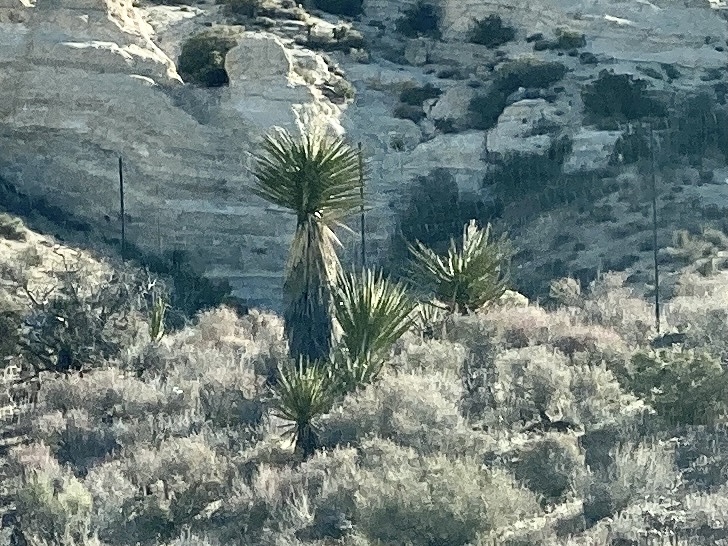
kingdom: Plantae
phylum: Tracheophyta
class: Liliopsida
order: Asparagales
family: Asparagaceae
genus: Yucca
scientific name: Yucca schidigera
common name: Mojave yucca
